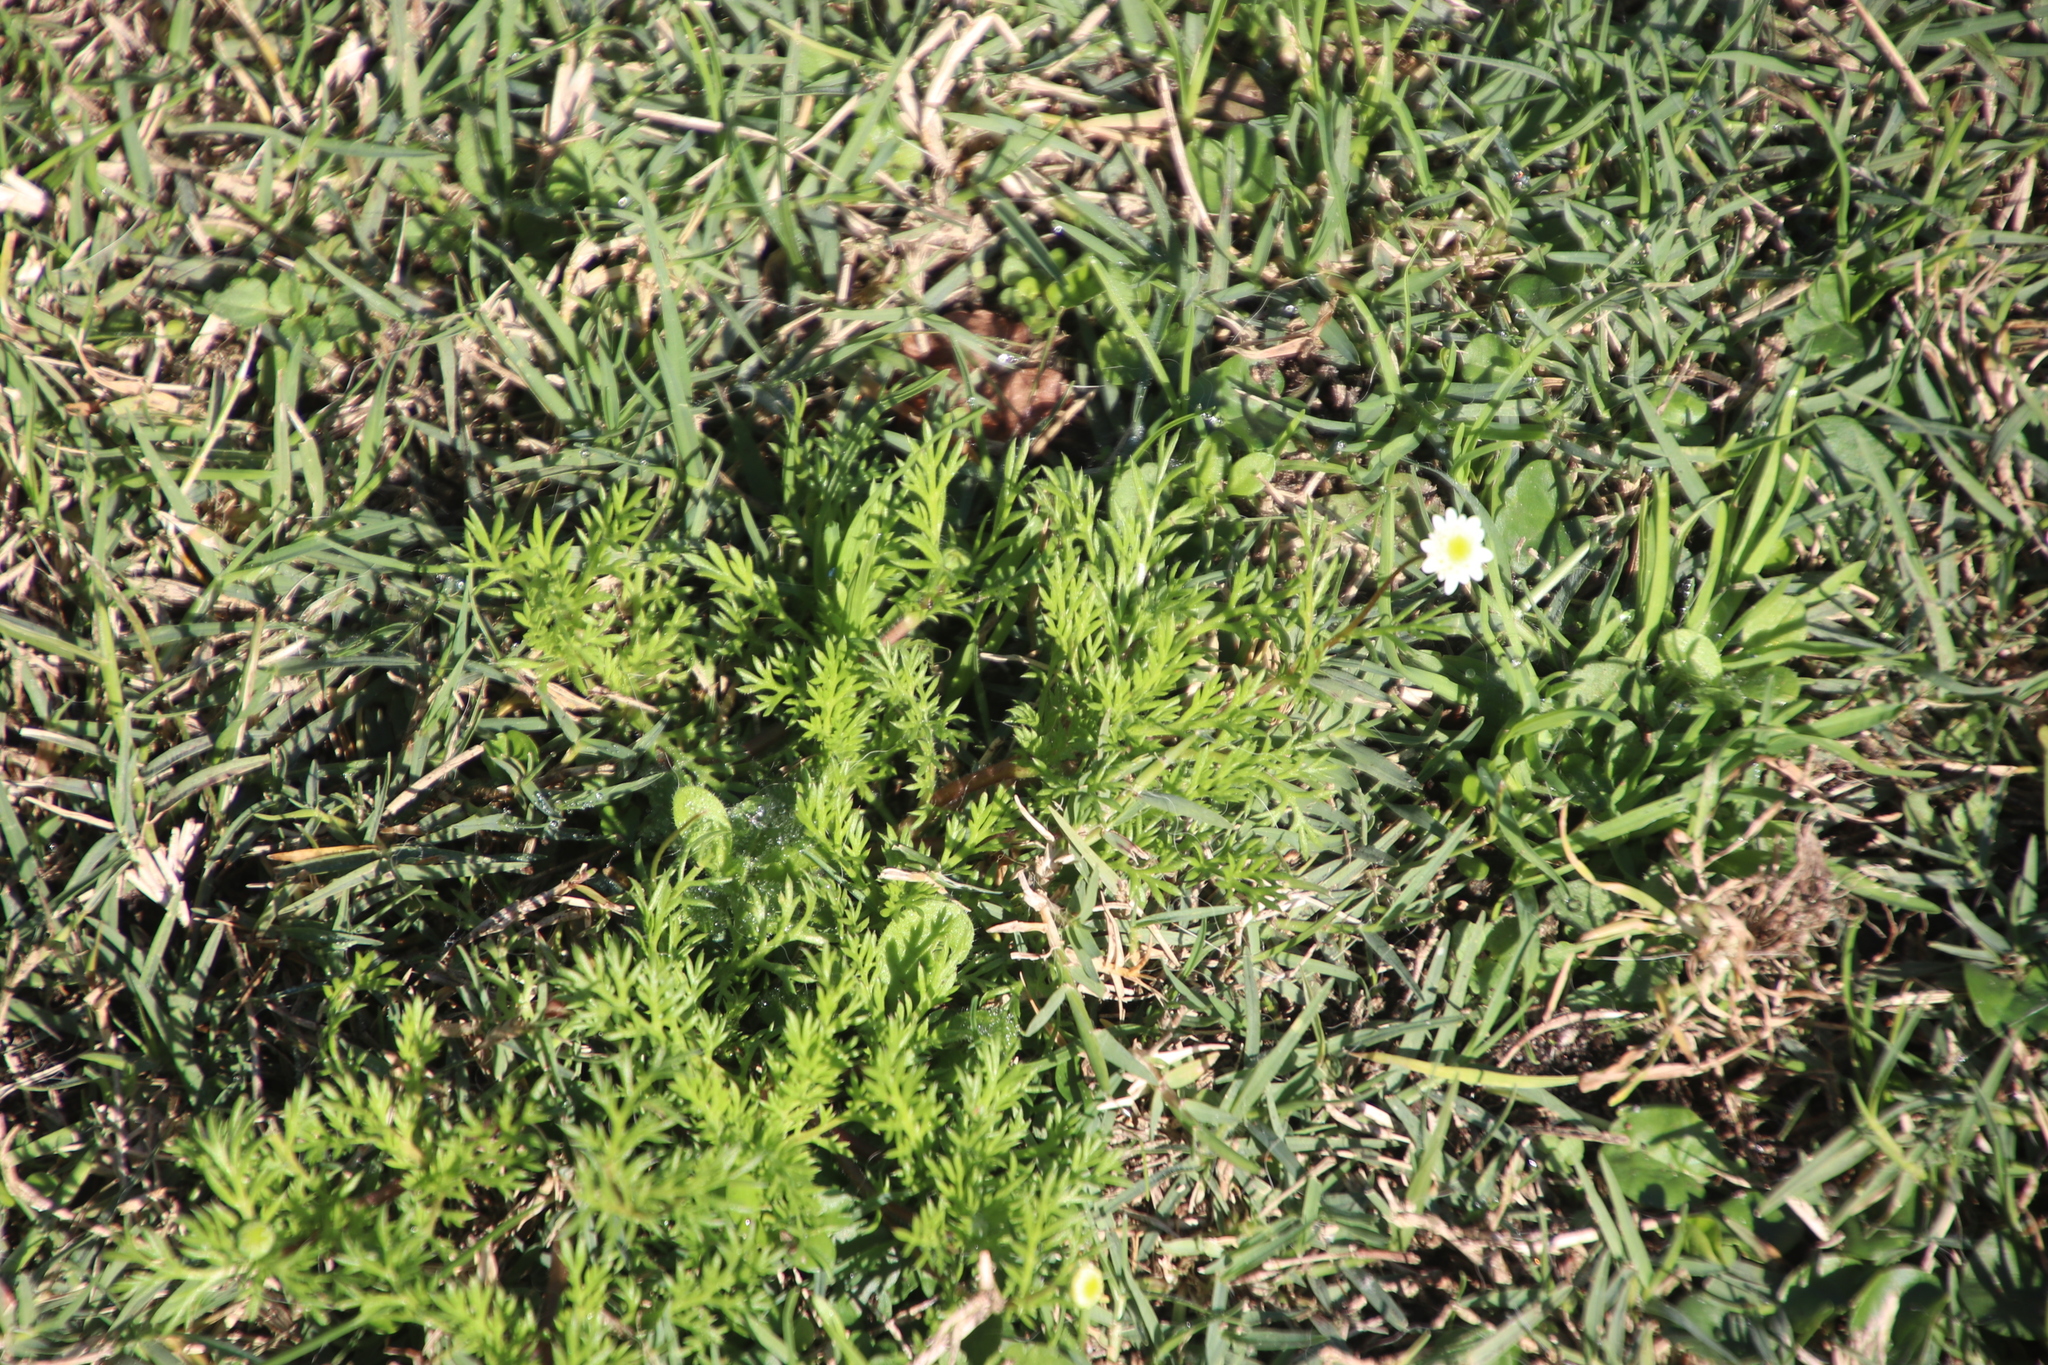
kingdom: Plantae
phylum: Tracheophyta
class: Magnoliopsida
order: Asterales
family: Asteraceae
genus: Cotula
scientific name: Cotula turbinata
